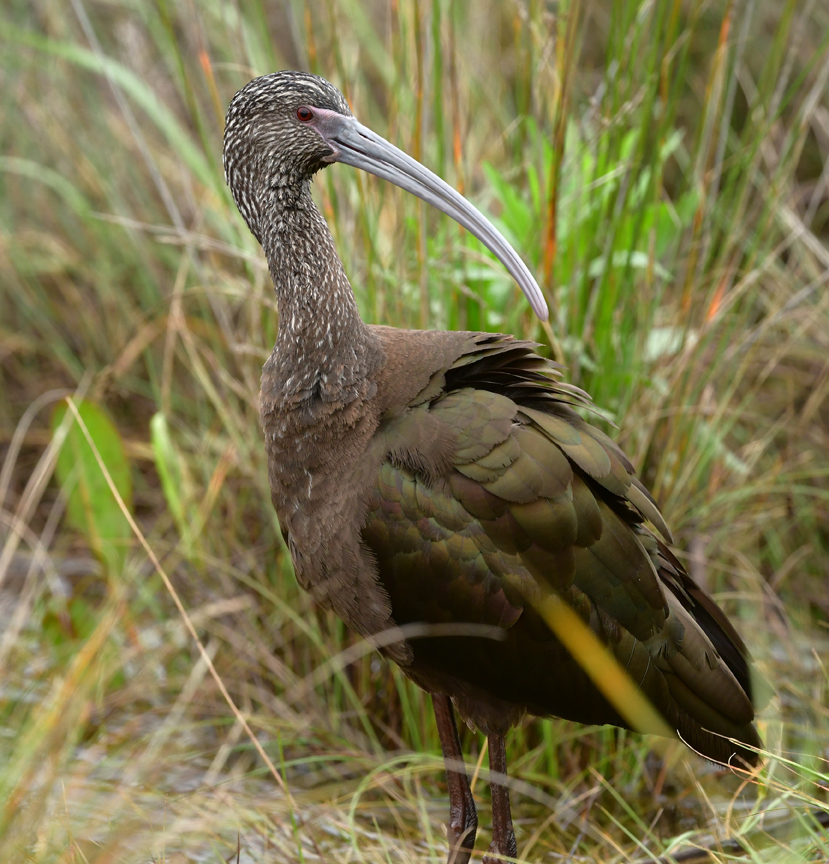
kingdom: Animalia
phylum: Chordata
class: Aves
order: Pelecaniformes
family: Threskiornithidae
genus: Plegadis
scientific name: Plegadis chihi
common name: White-faced ibis
